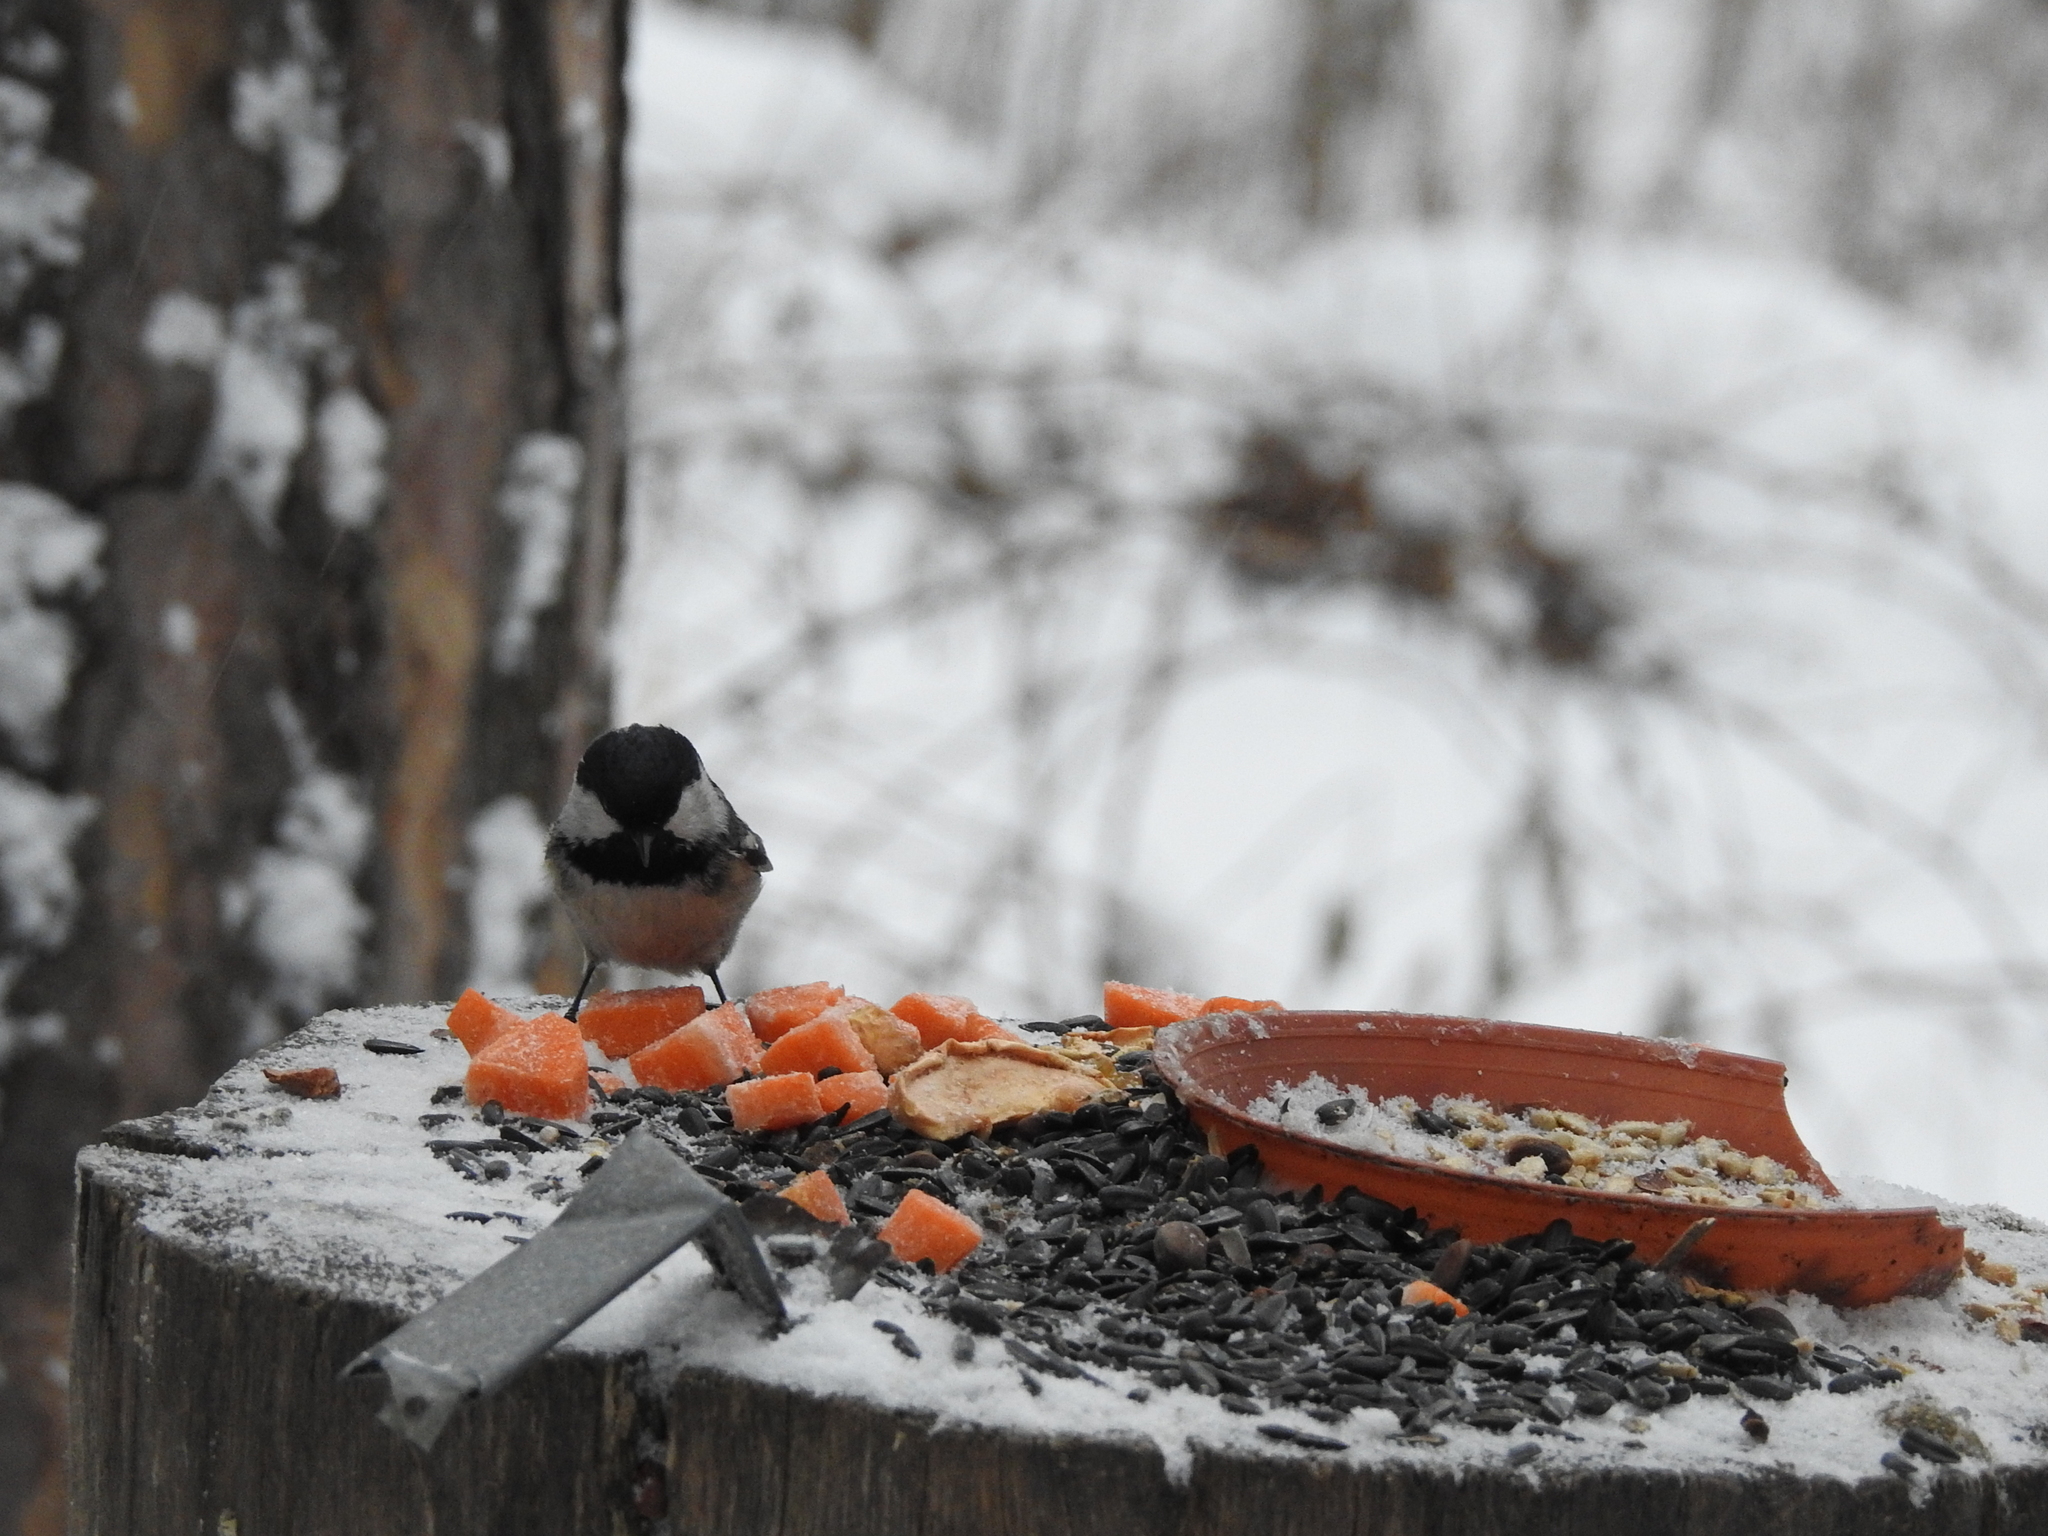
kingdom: Animalia
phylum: Chordata
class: Aves
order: Passeriformes
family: Paridae
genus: Periparus
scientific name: Periparus ater
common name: Coal tit
